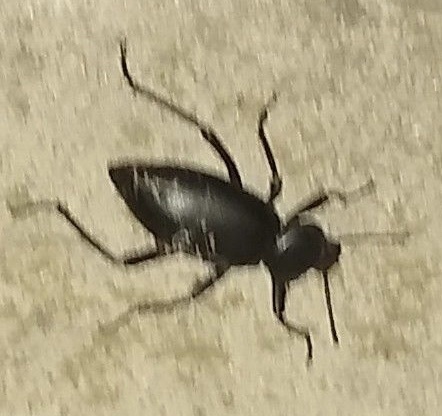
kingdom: Animalia
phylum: Arthropoda
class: Insecta
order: Coleoptera
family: Tenebrionidae
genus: Eleodes
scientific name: Eleodes acuticauda
